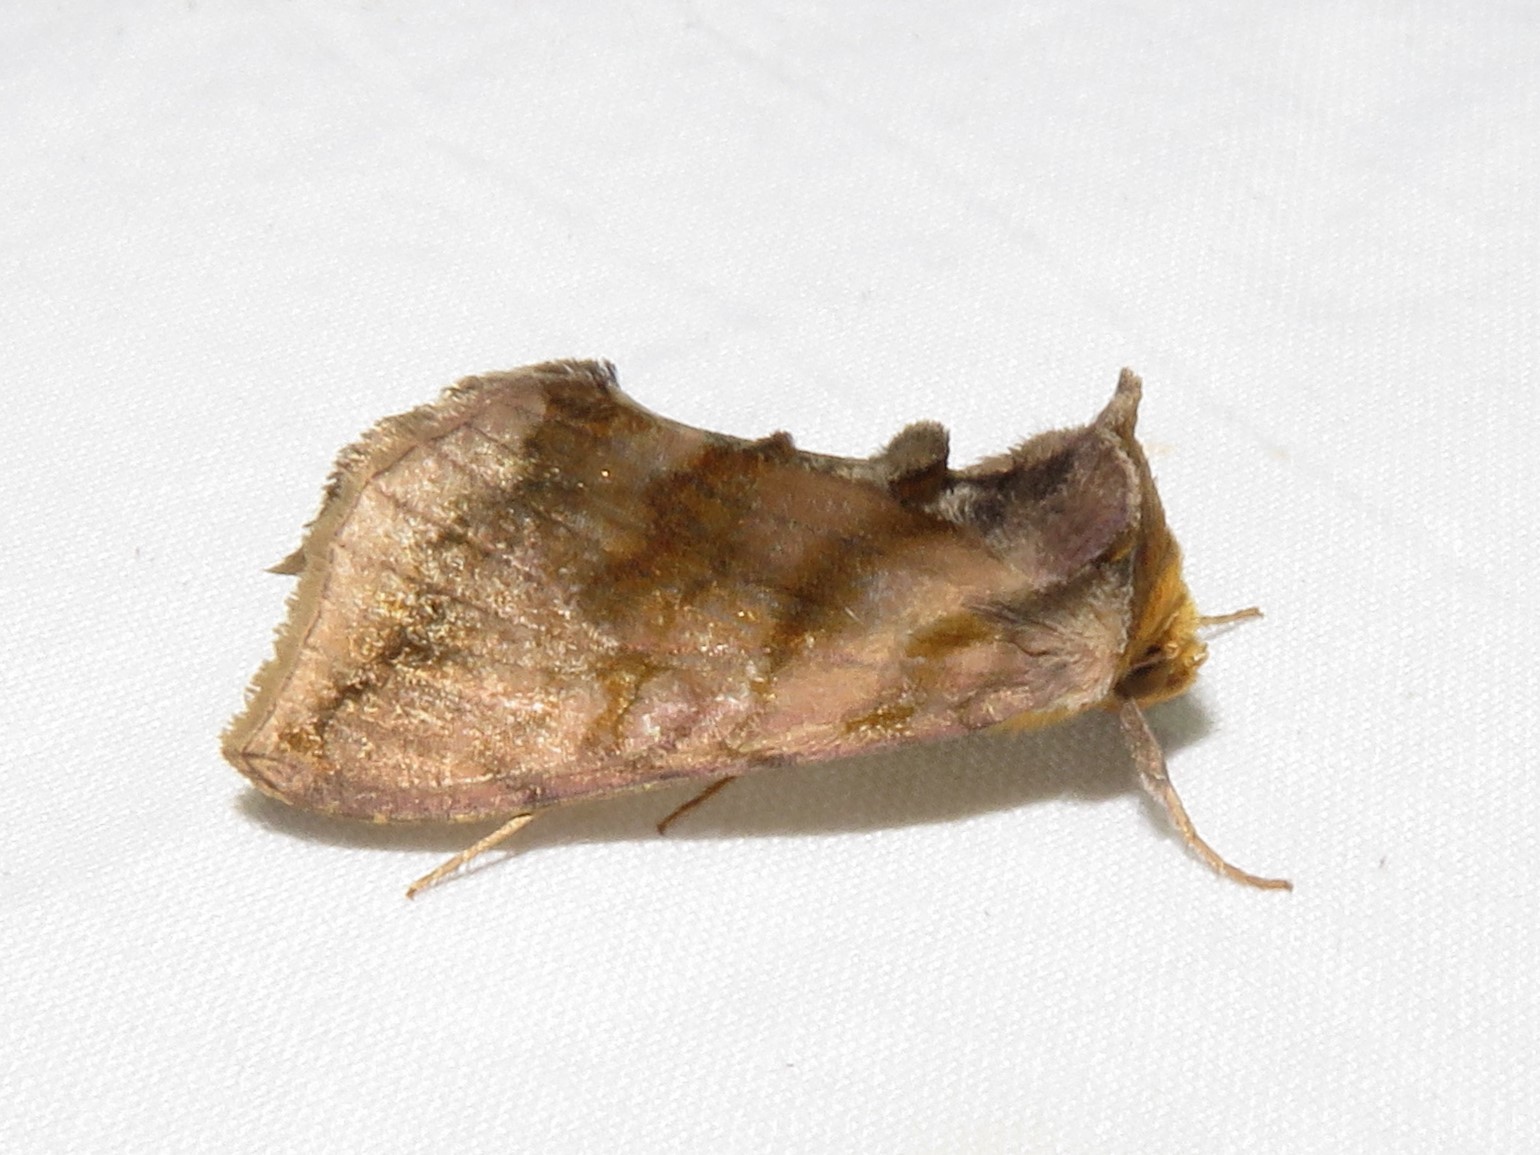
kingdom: Animalia
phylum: Arthropoda
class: Insecta
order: Lepidoptera
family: Noctuidae
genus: Allagrapha
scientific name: Allagrapha aerea
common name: Unspotted looper moth
